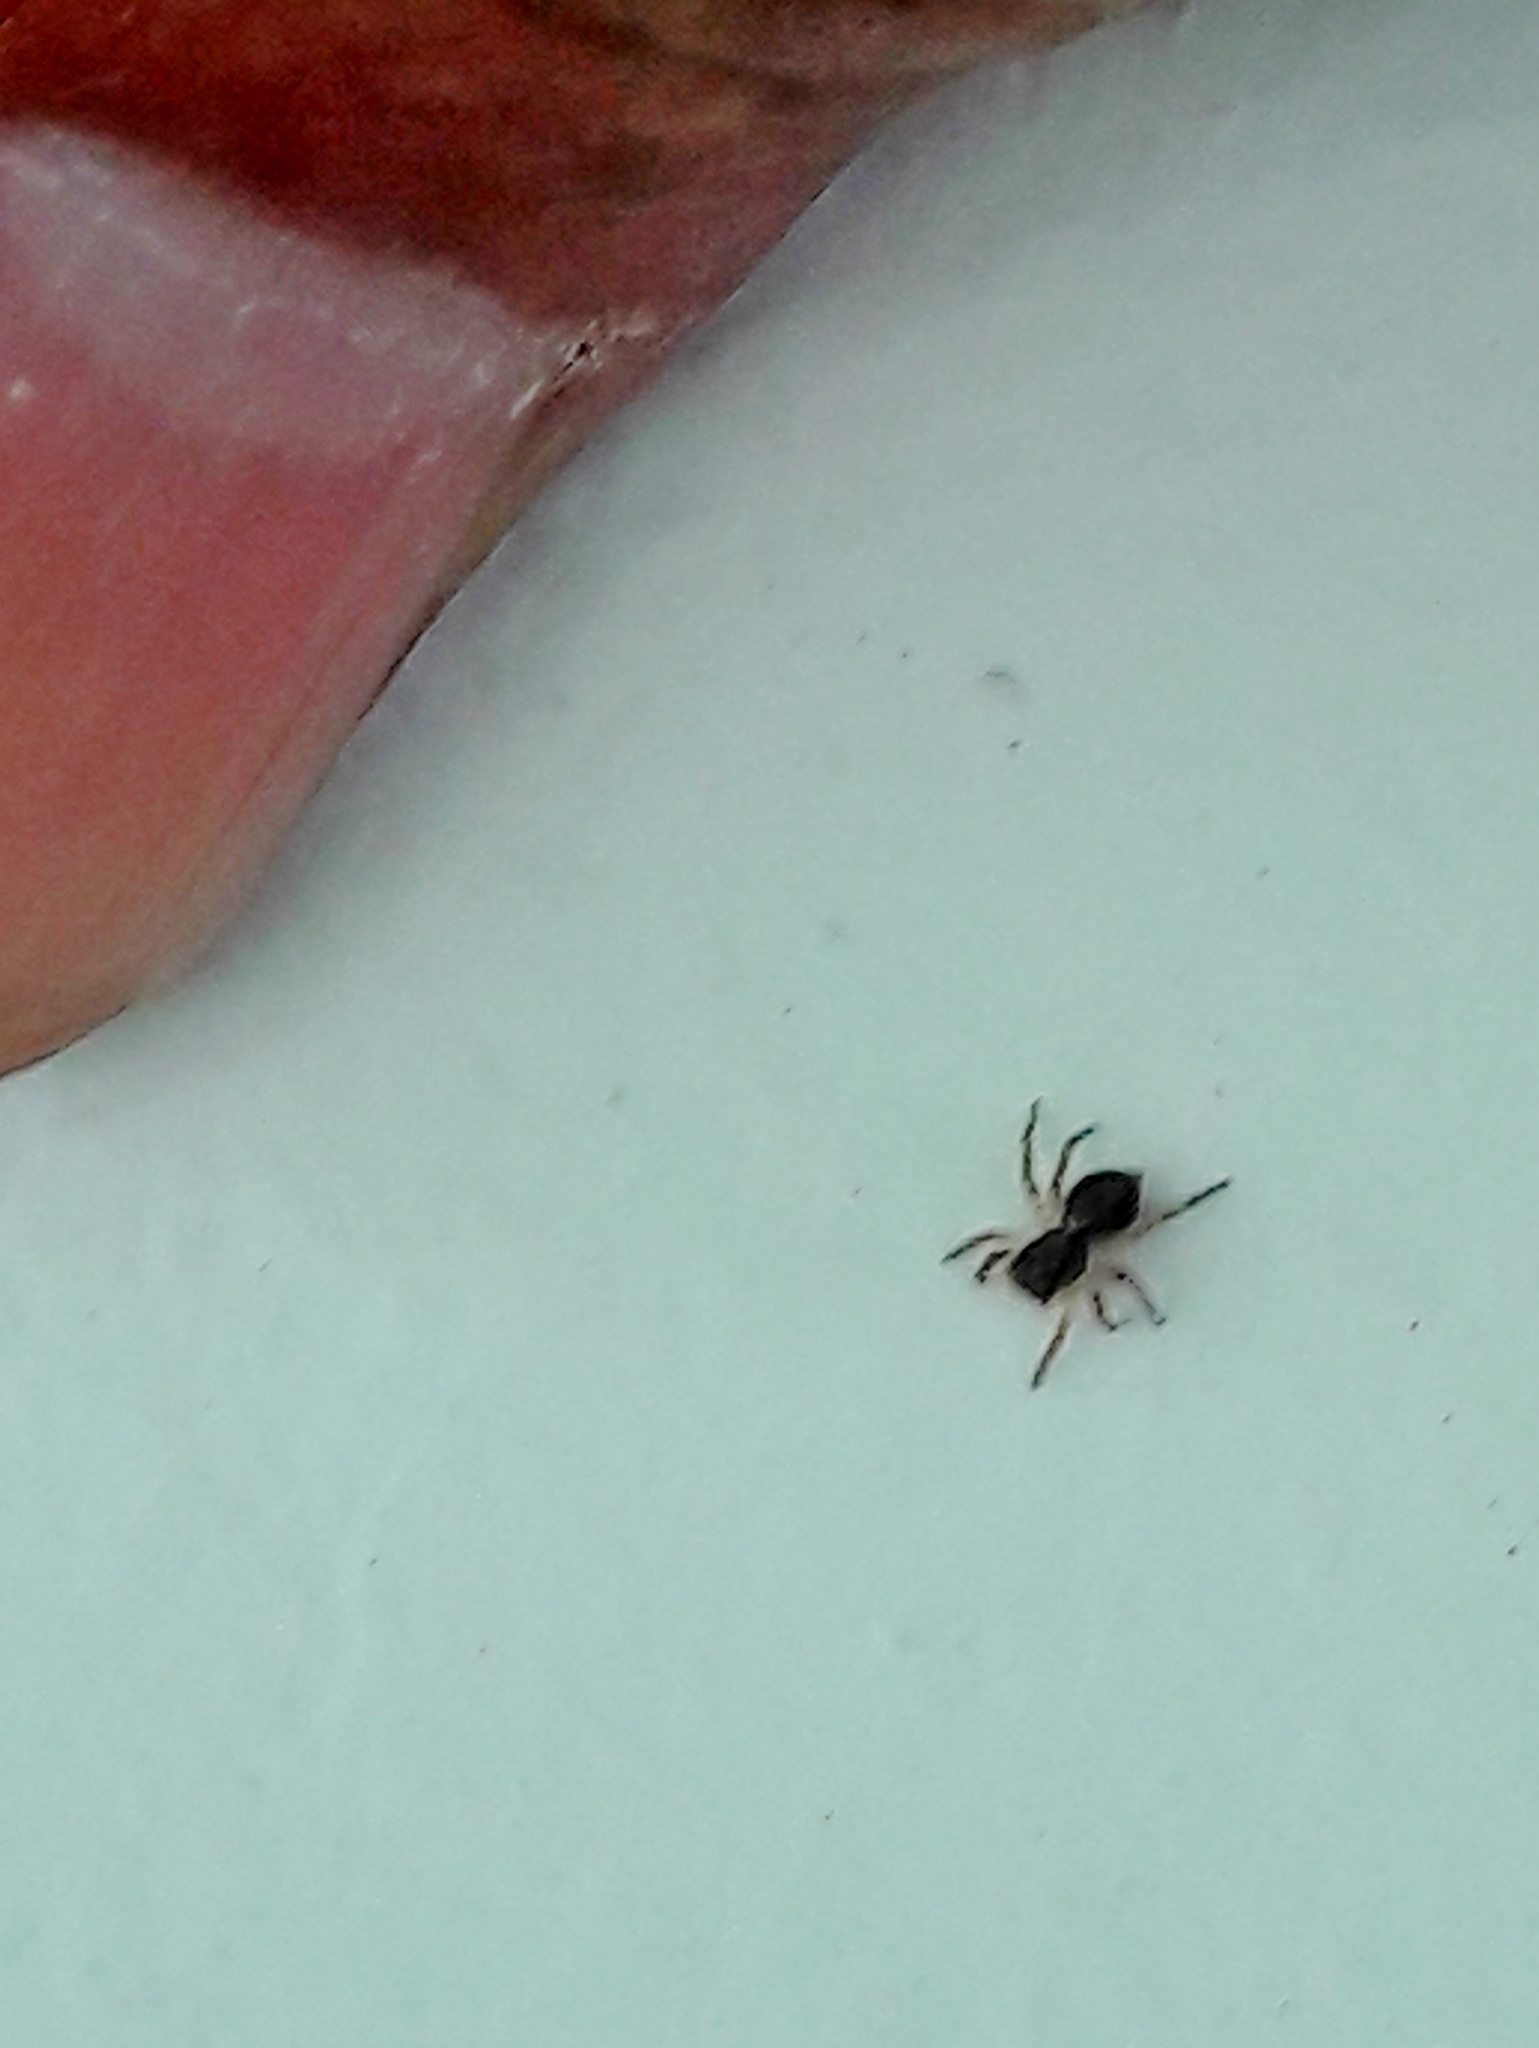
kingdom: Animalia
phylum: Arthropoda
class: Arachnida
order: Araneae
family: Salticidae
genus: Marma
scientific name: Marma nigritarsis
